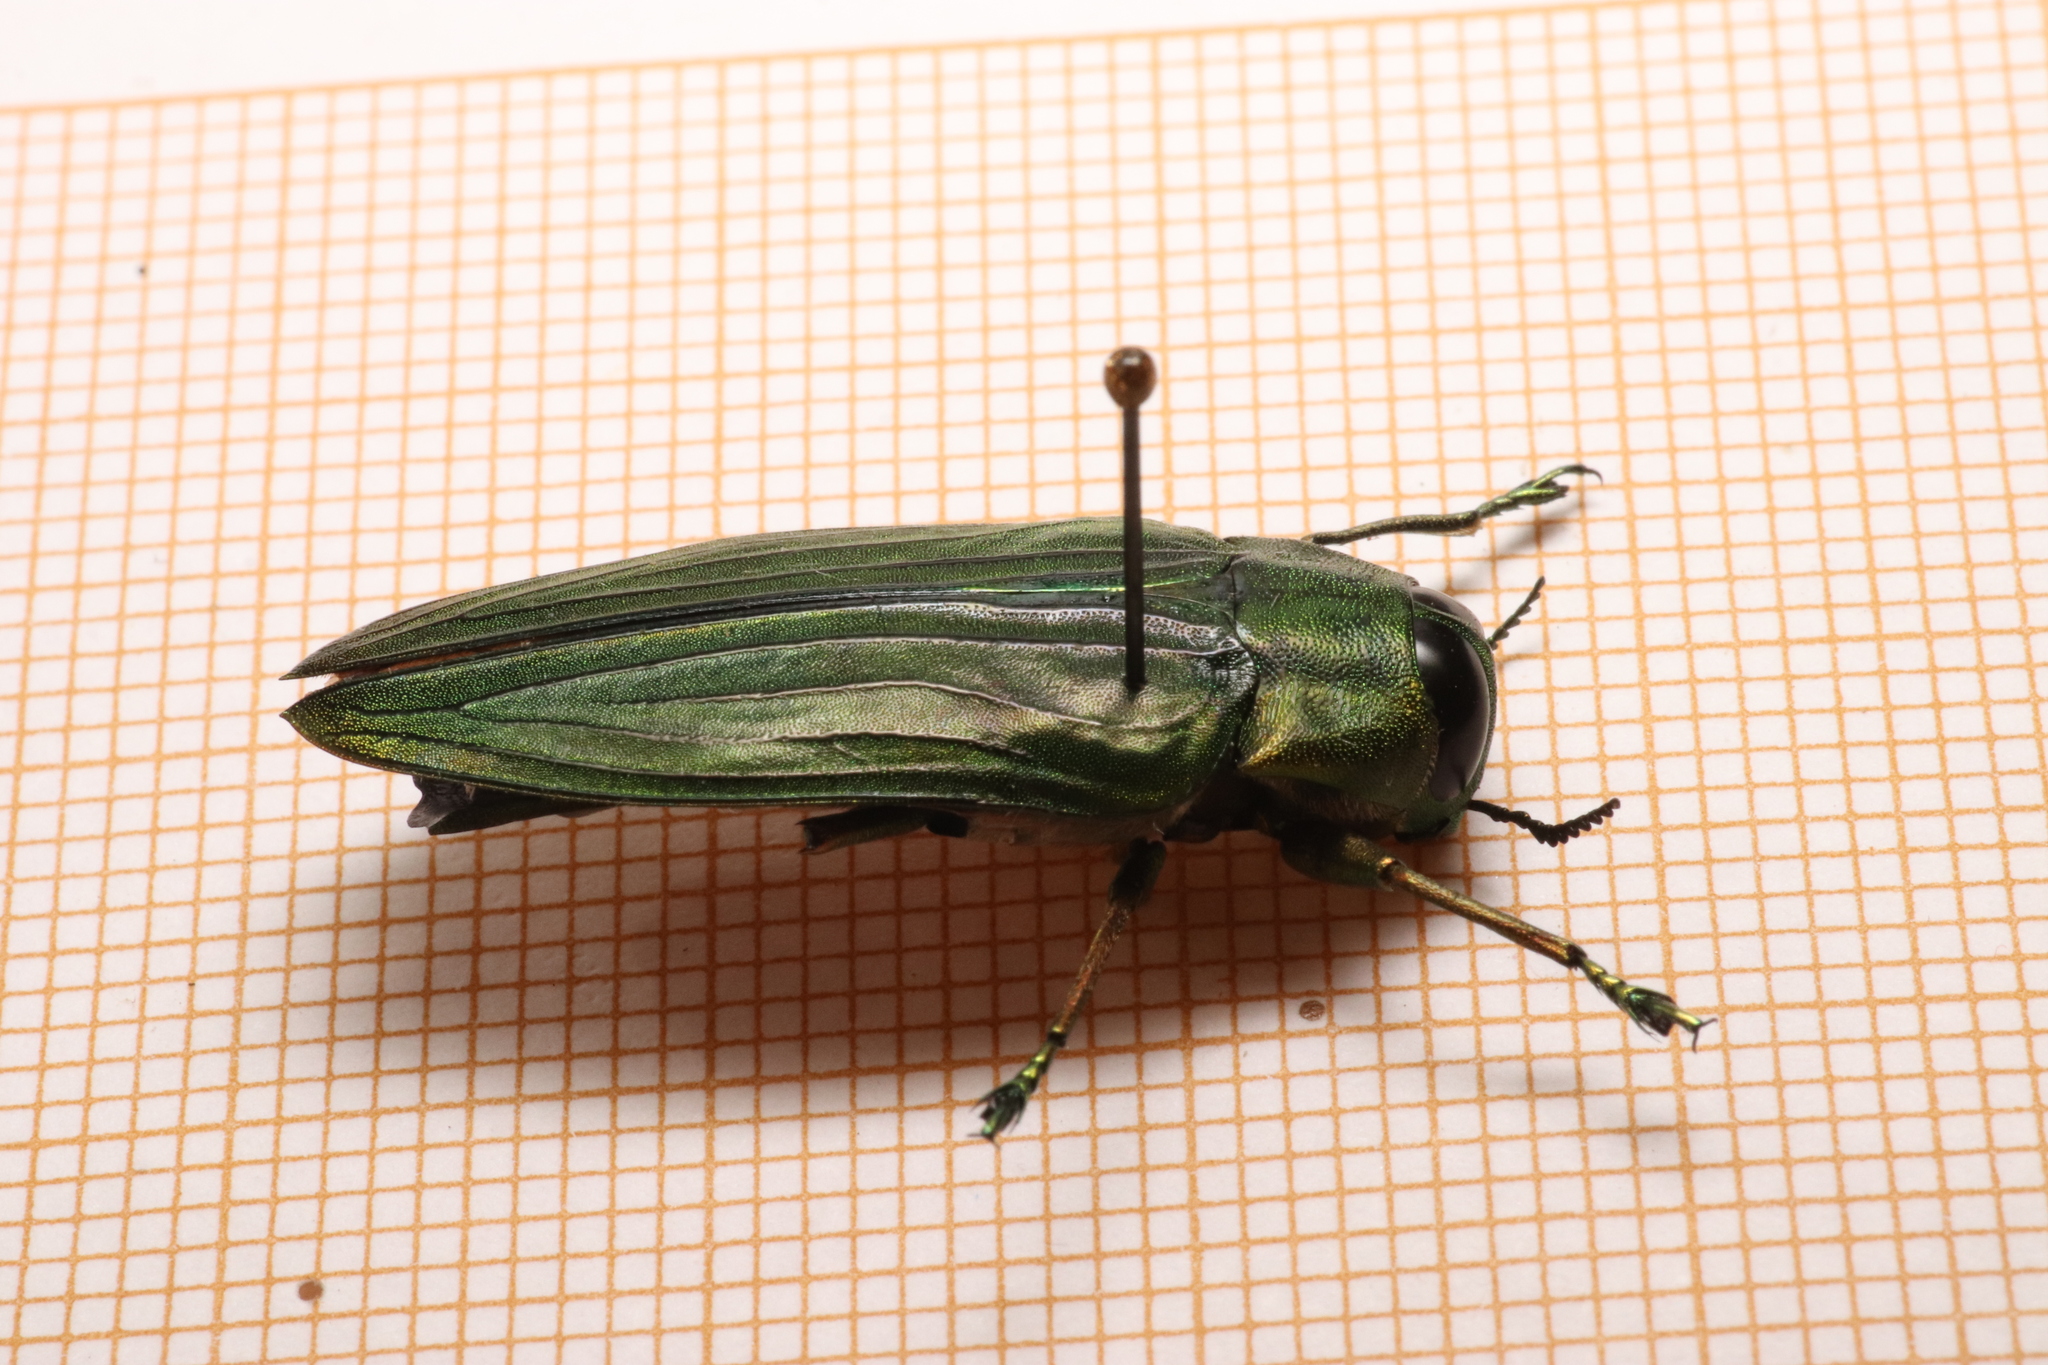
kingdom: Animalia
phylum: Arthropoda
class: Insecta
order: Coleoptera
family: Buprestidae
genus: Megactenodes
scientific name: Megactenodes westermanni
